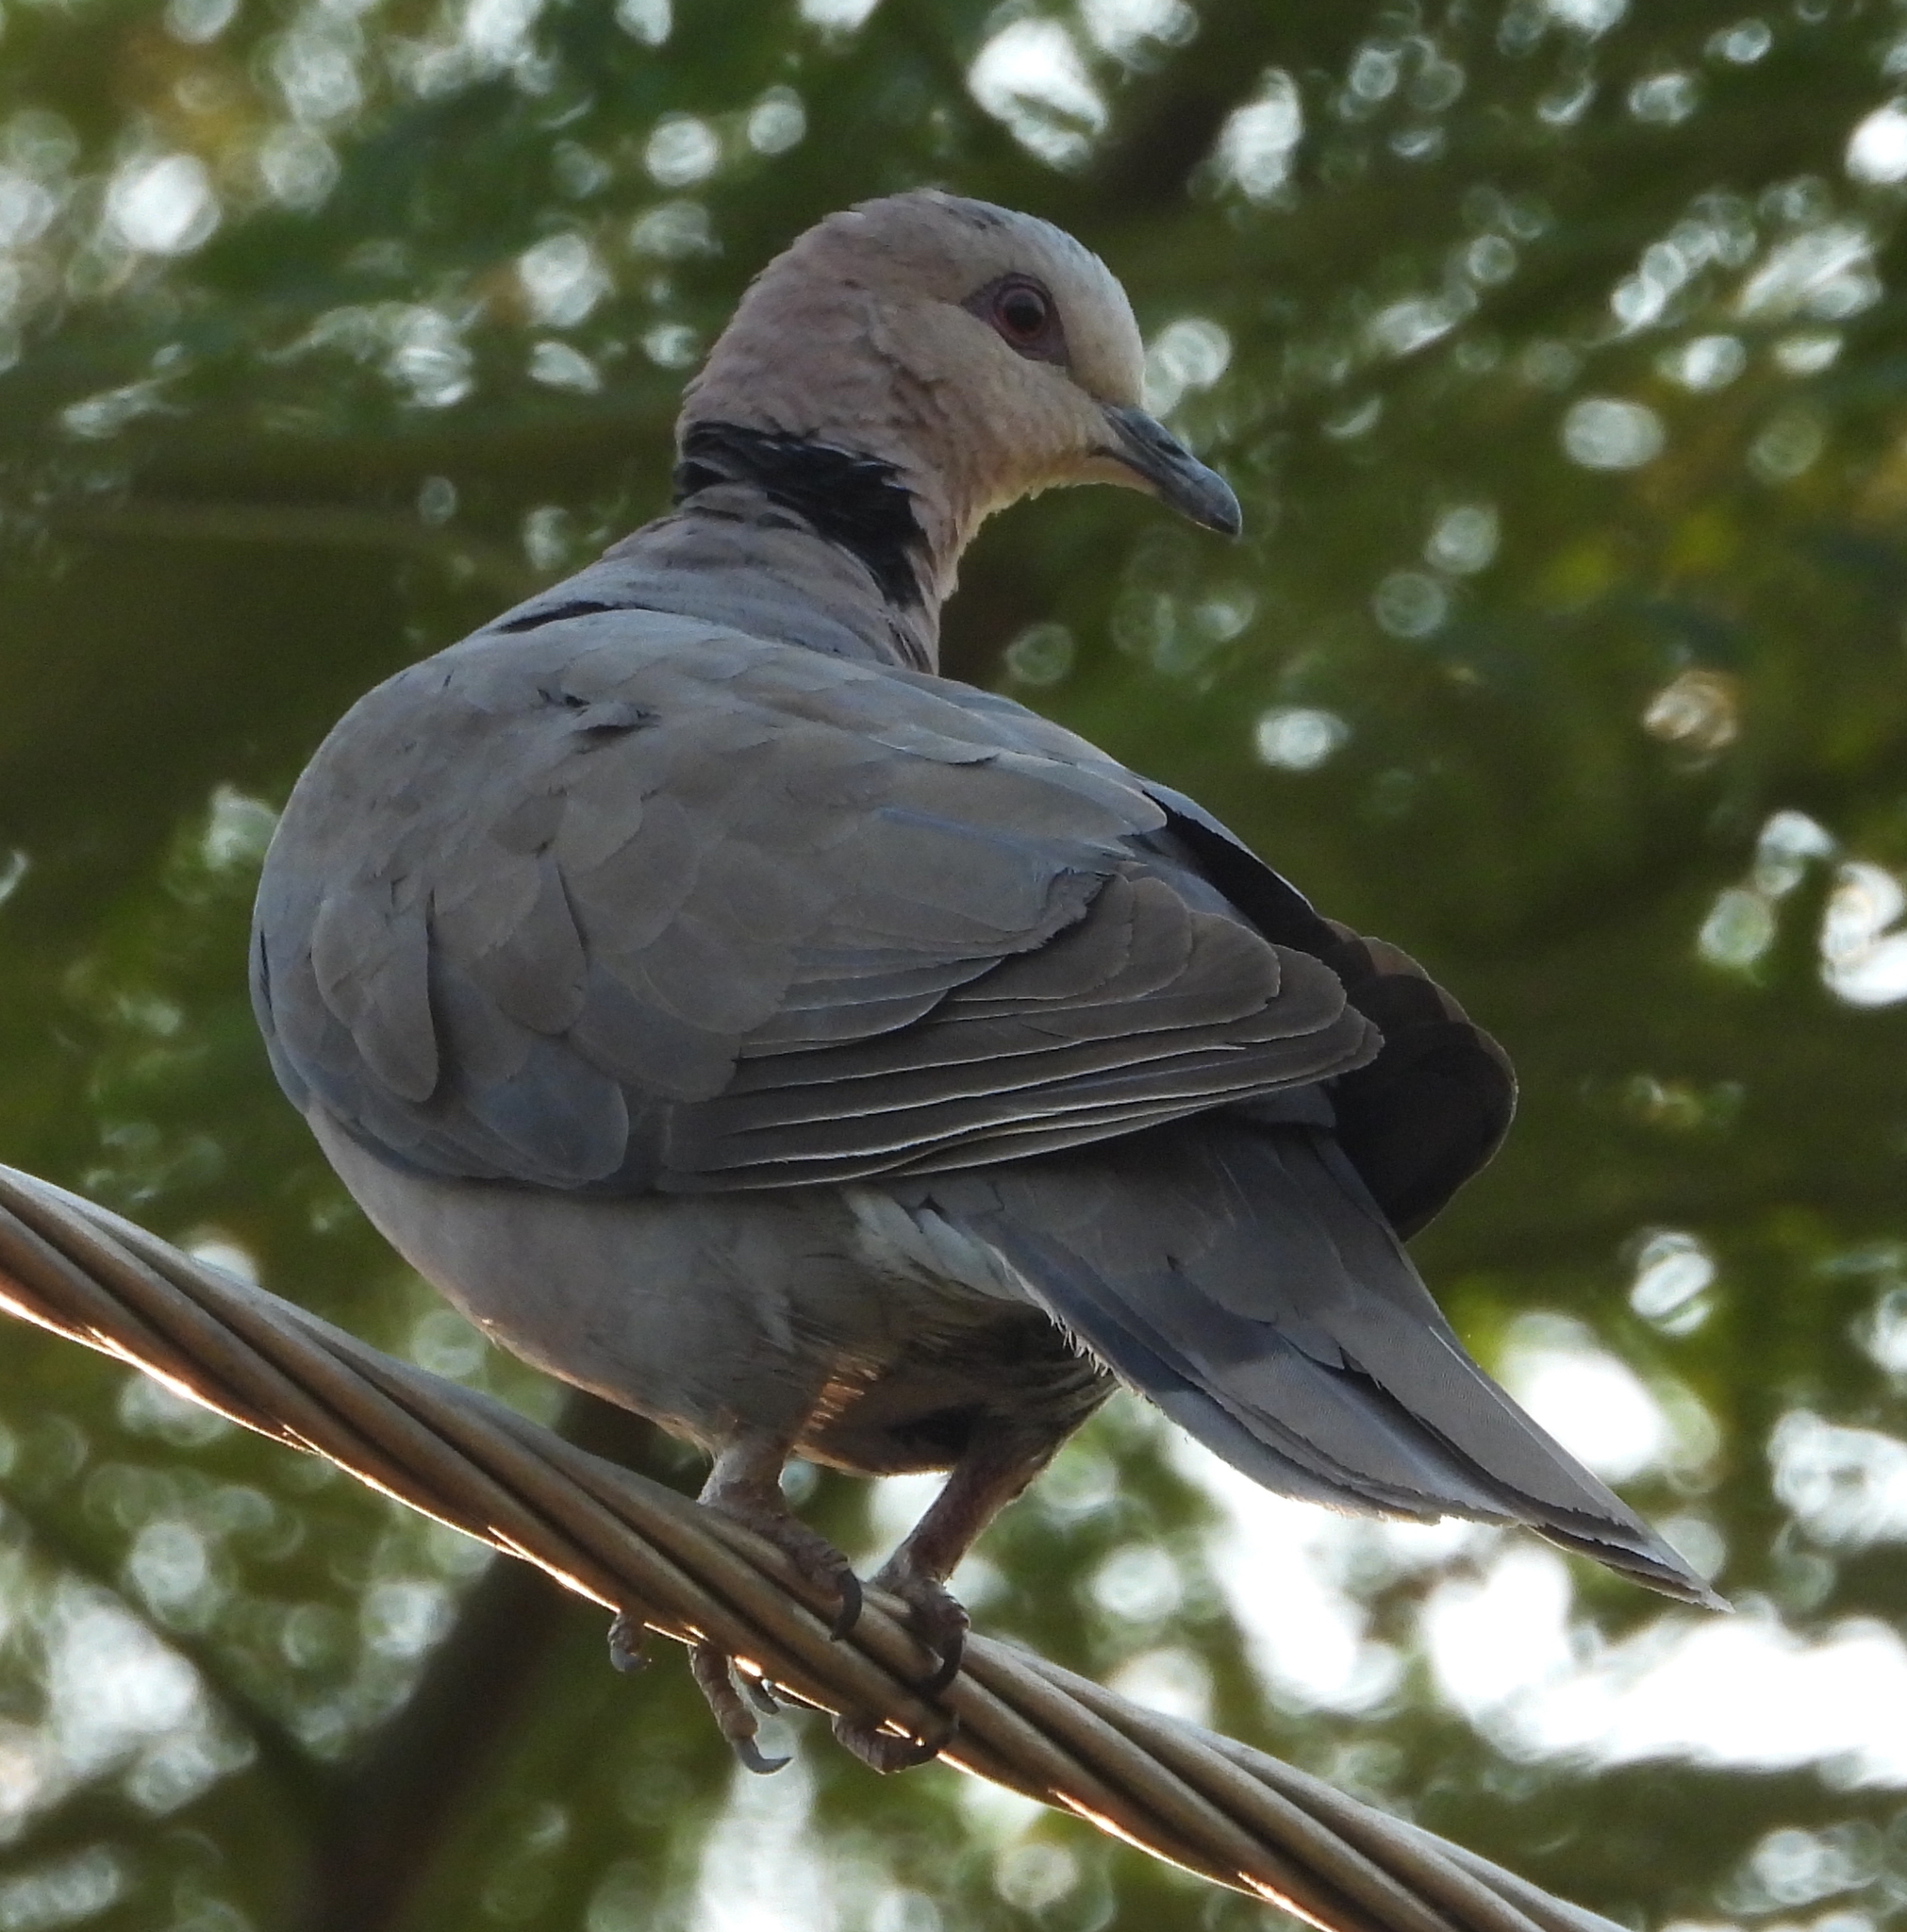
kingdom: Animalia
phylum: Chordata
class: Aves
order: Columbiformes
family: Columbidae
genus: Streptopelia
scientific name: Streptopelia semitorquata
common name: Red-eyed dove
